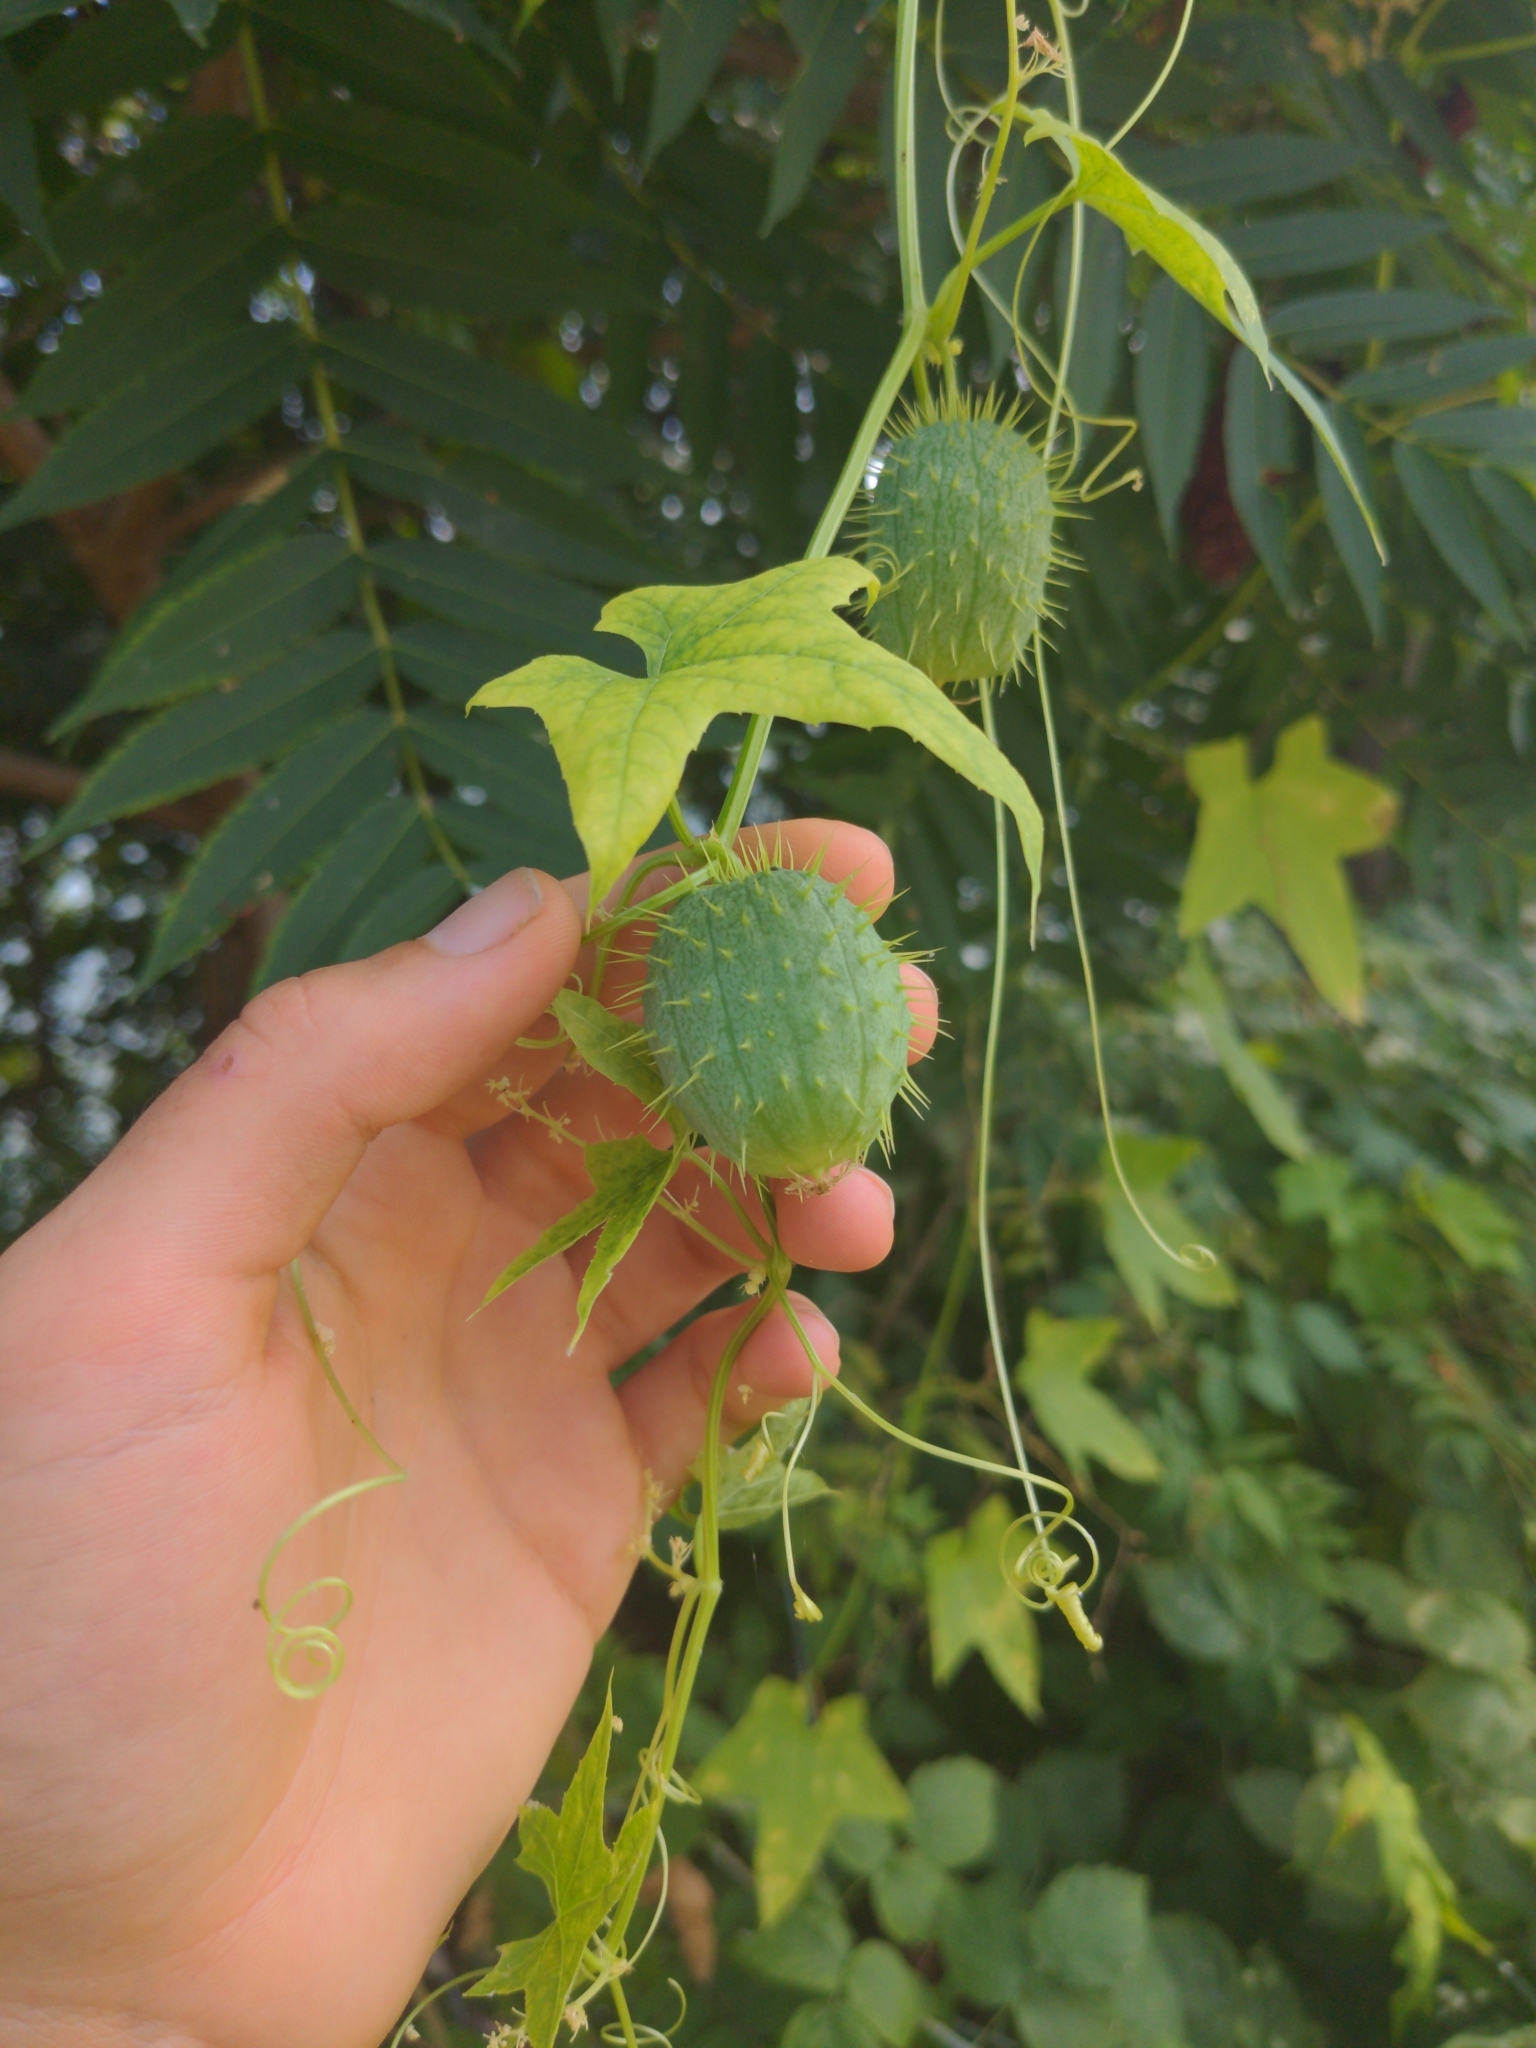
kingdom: Plantae
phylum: Tracheophyta
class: Magnoliopsida
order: Cucurbitales
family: Cucurbitaceae
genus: Echinocystis
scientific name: Echinocystis lobata
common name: Wild cucumber
